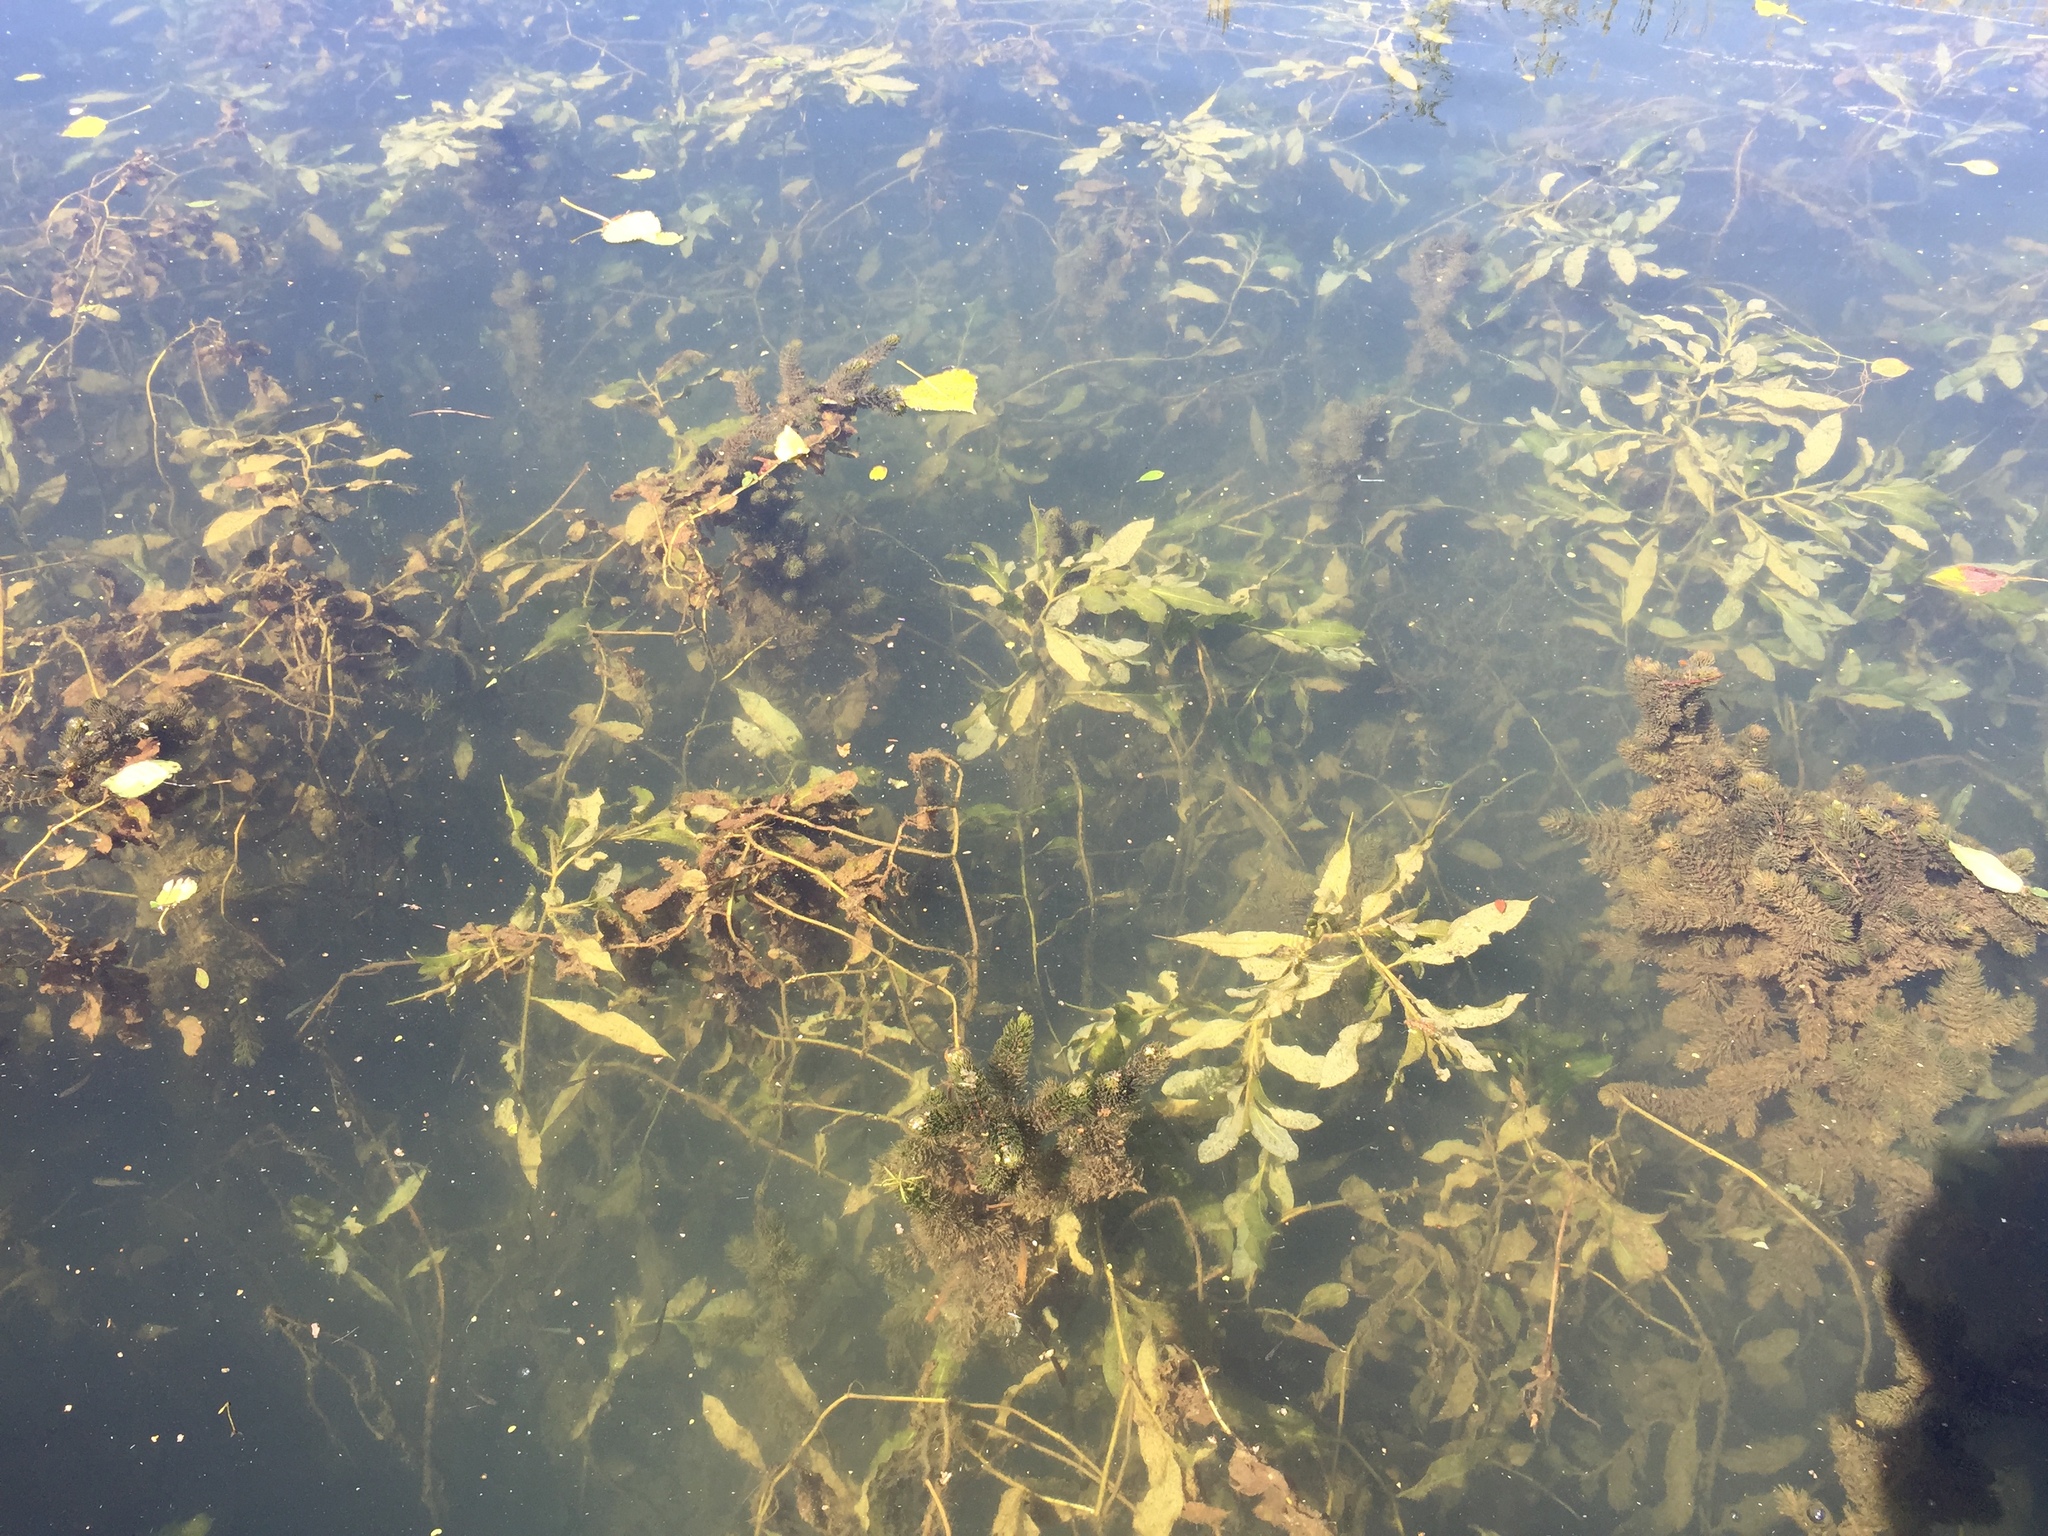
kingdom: Plantae
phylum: Tracheophyta
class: Liliopsida
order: Alismatales
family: Potamogetonaceae
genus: Potamogeton
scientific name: Potamogeton lucens
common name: Shining pondweed
